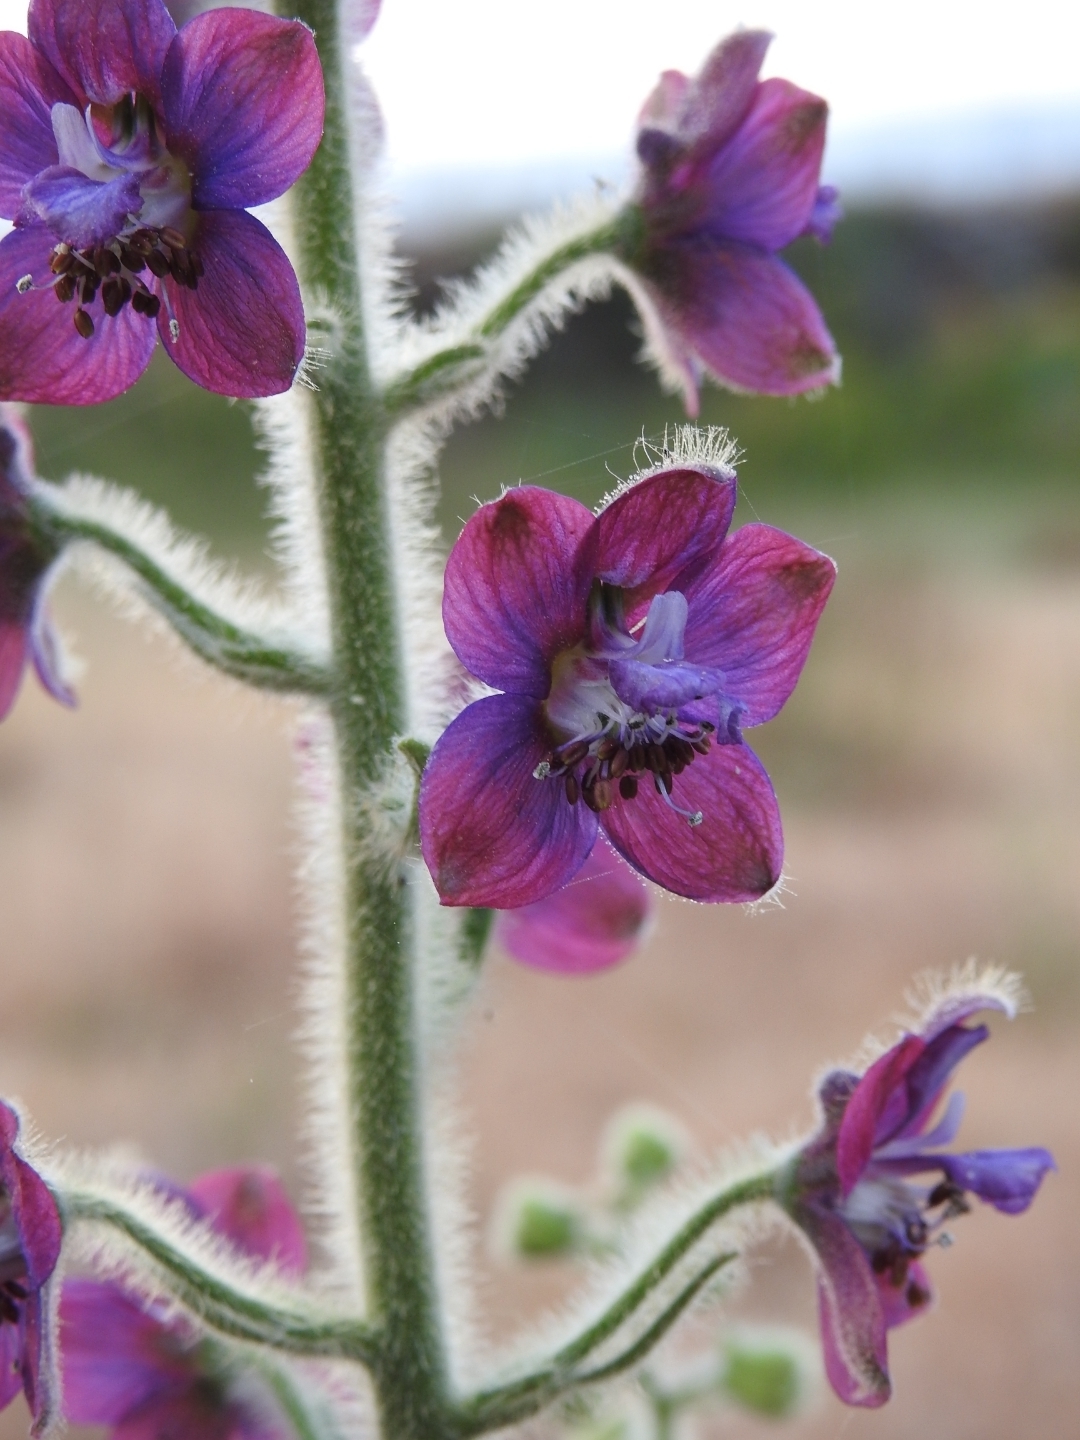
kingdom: Plantae
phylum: Tracheophyta
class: Magnoliopsida
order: Ranunculales
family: Ranunculaceae
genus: Staphisagria
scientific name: Staphisagria macrosperma
